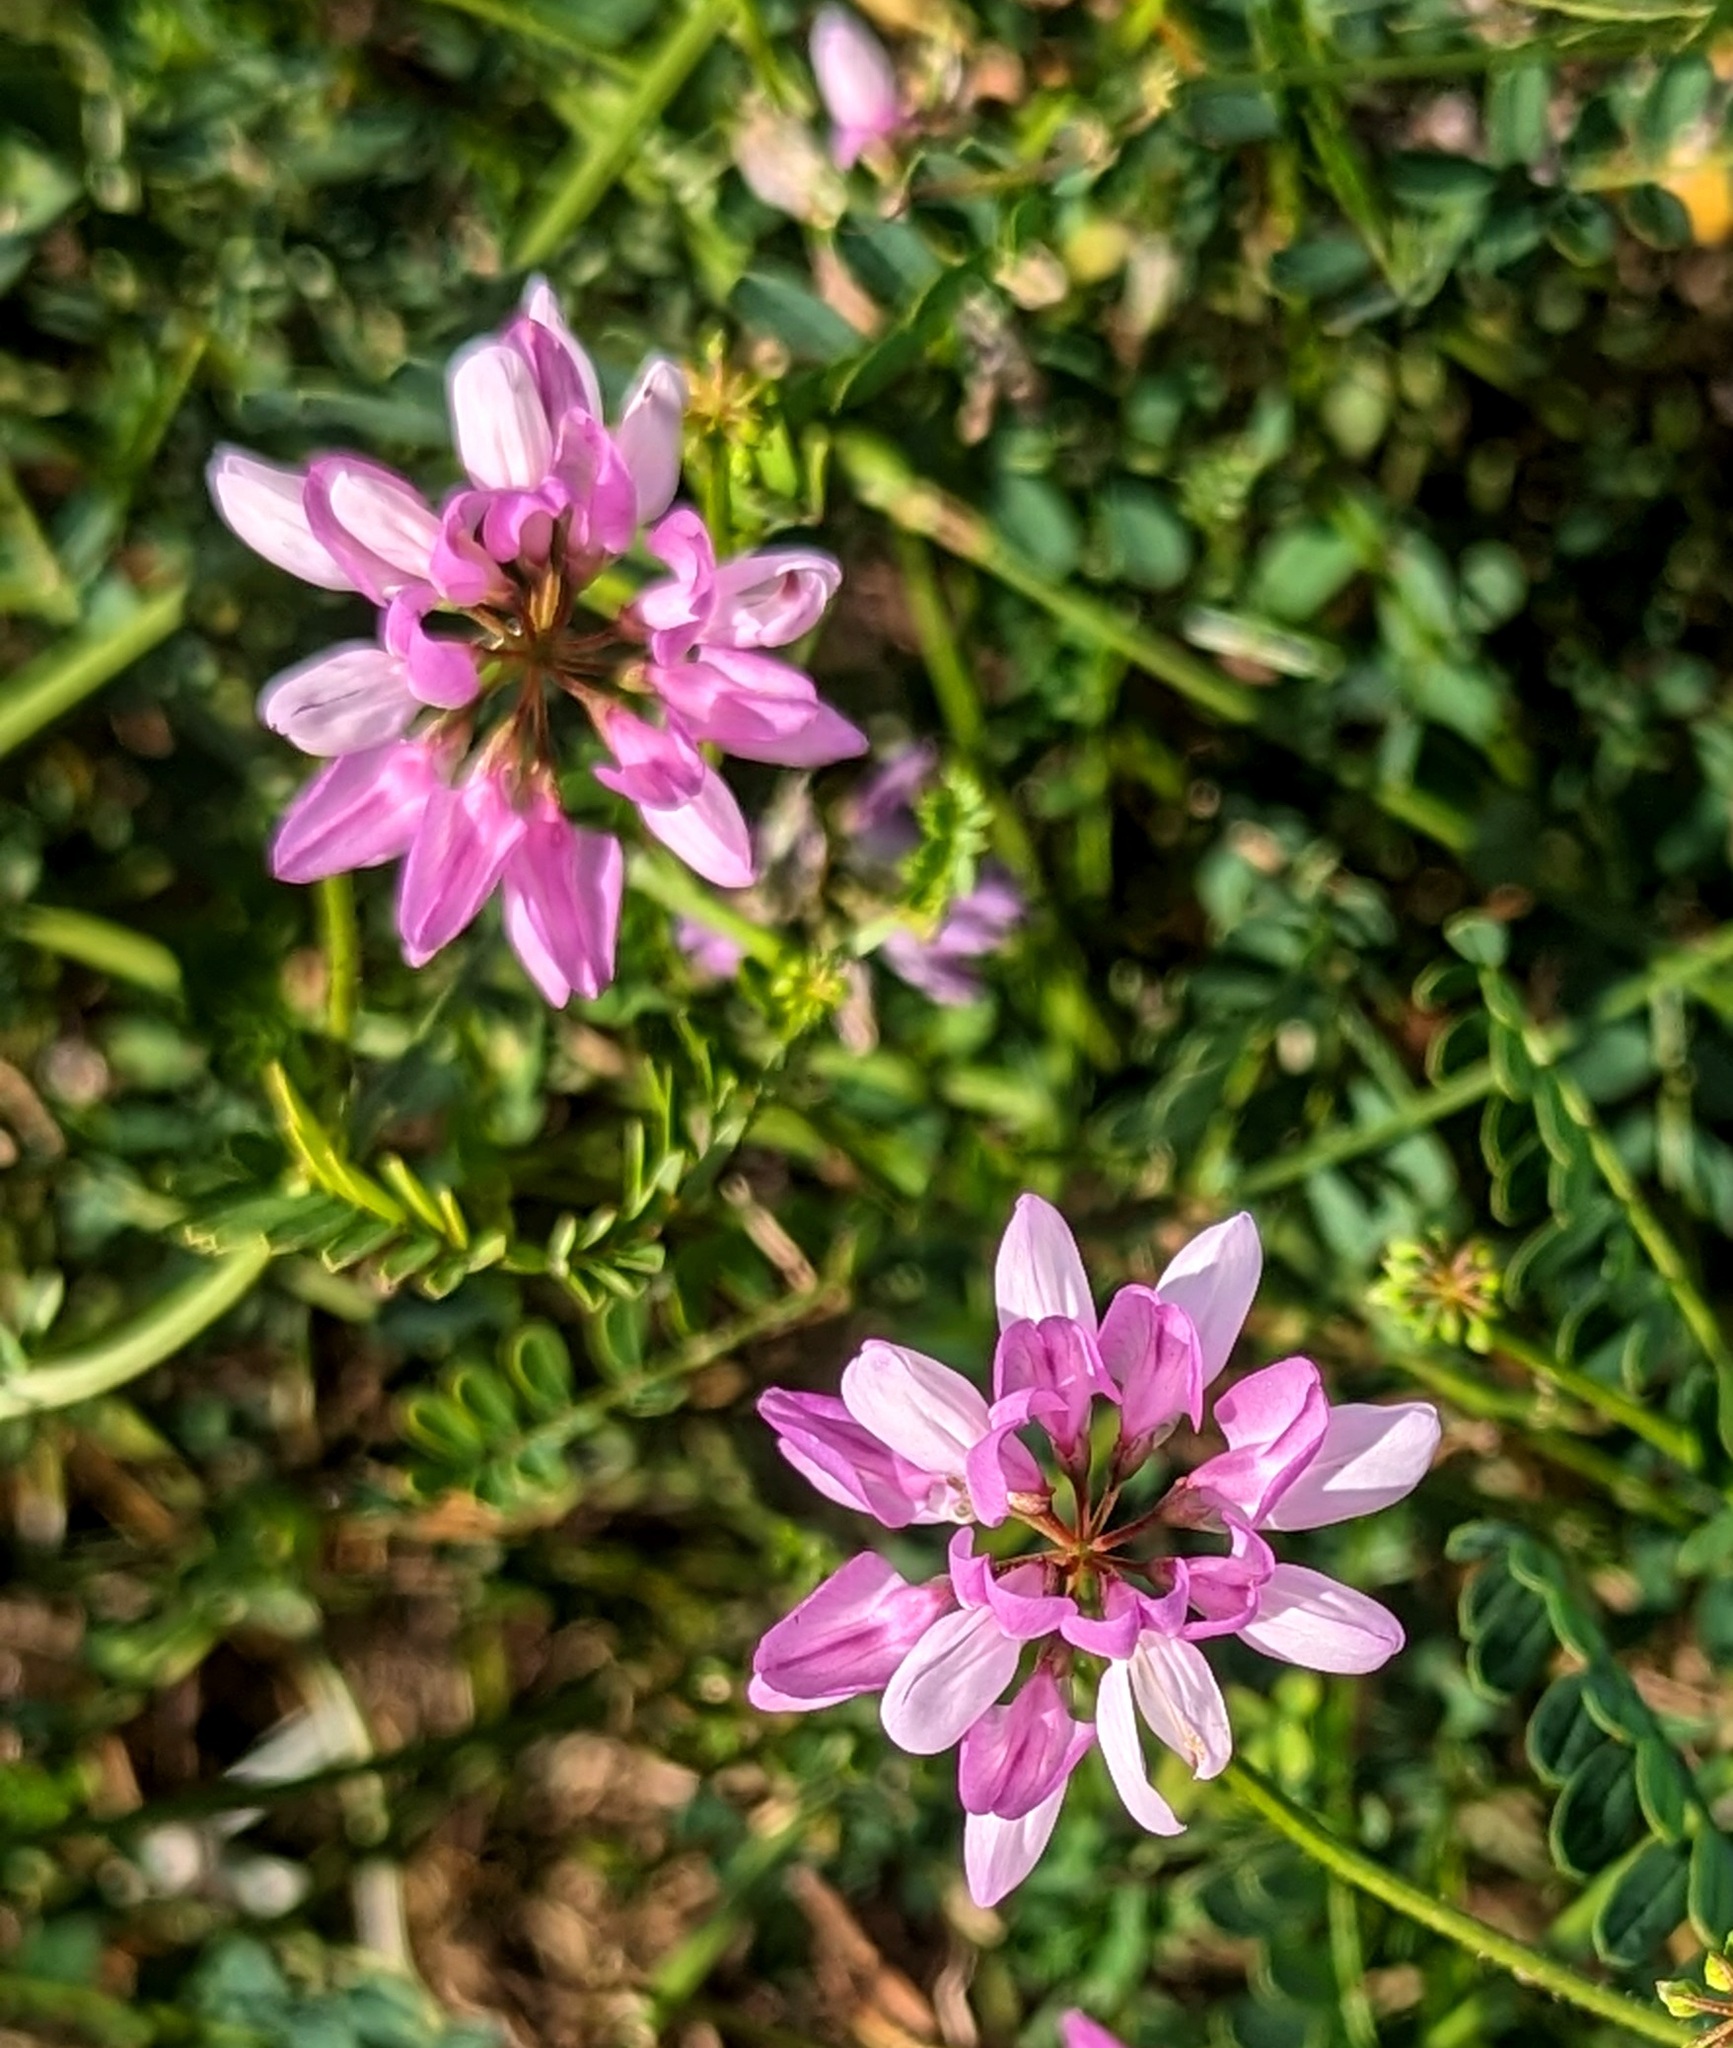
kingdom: Plantae
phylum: Tracheophyta
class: Magnoliopsida
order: Fabales
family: Fabaceae
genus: Coronilla
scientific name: Coronilla varia
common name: Crownvetch
